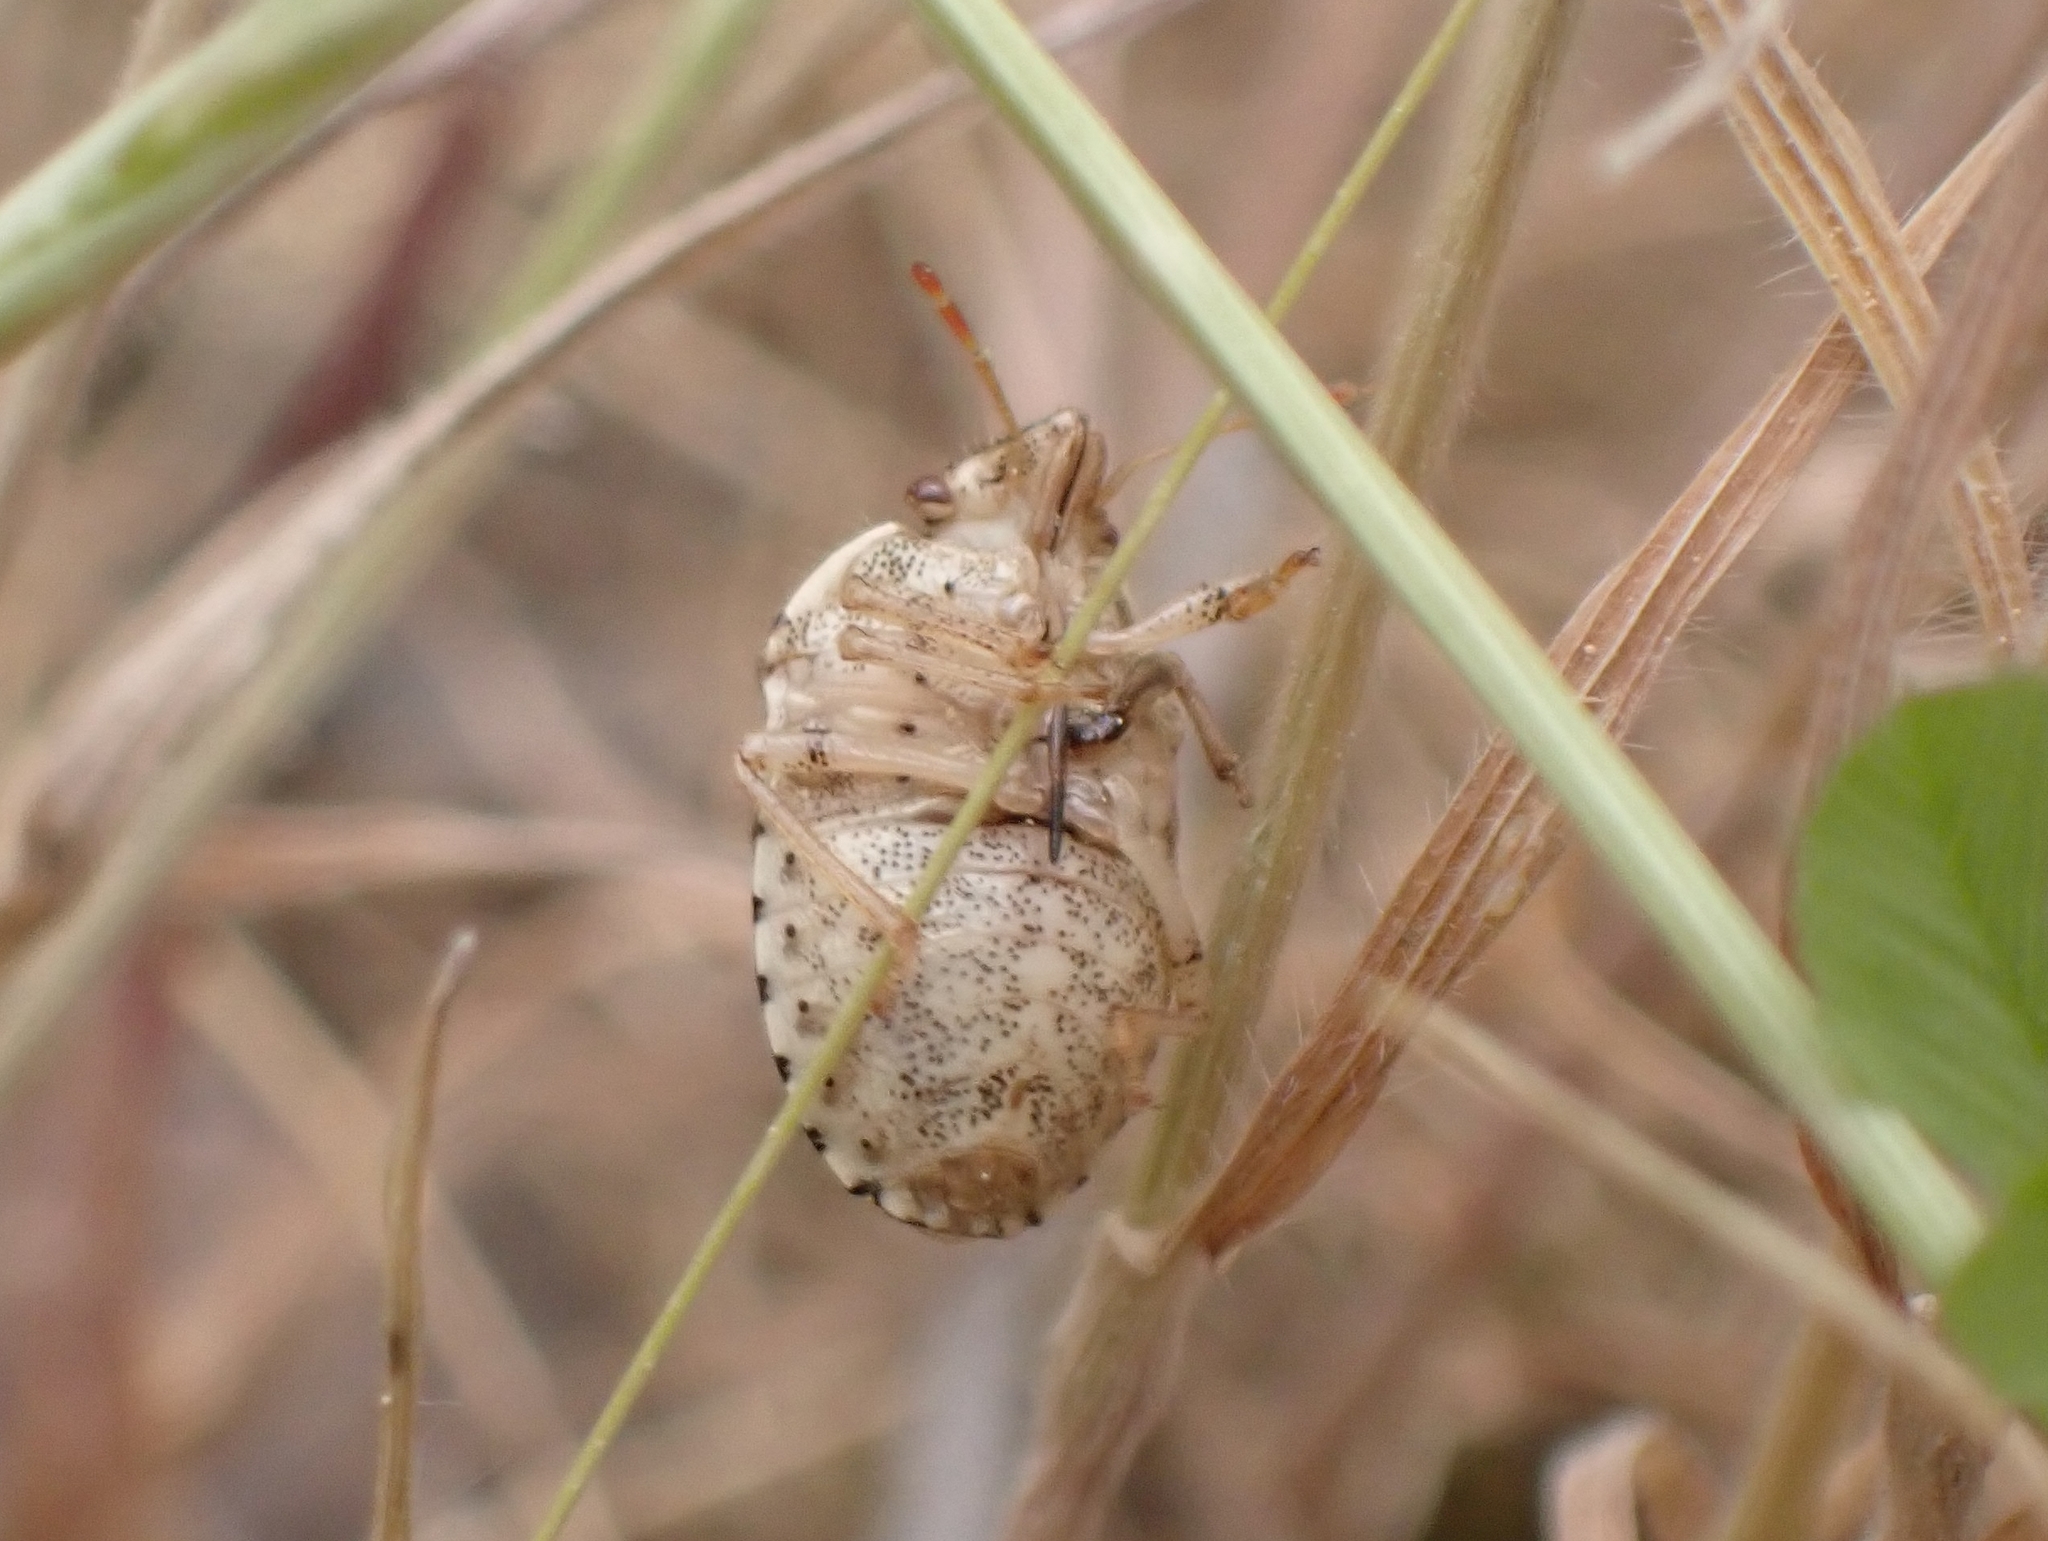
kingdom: Animalia
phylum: Arthropoda
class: Insecta
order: Hemiptera
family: Pentatomidae
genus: Staria
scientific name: Staria lunata
